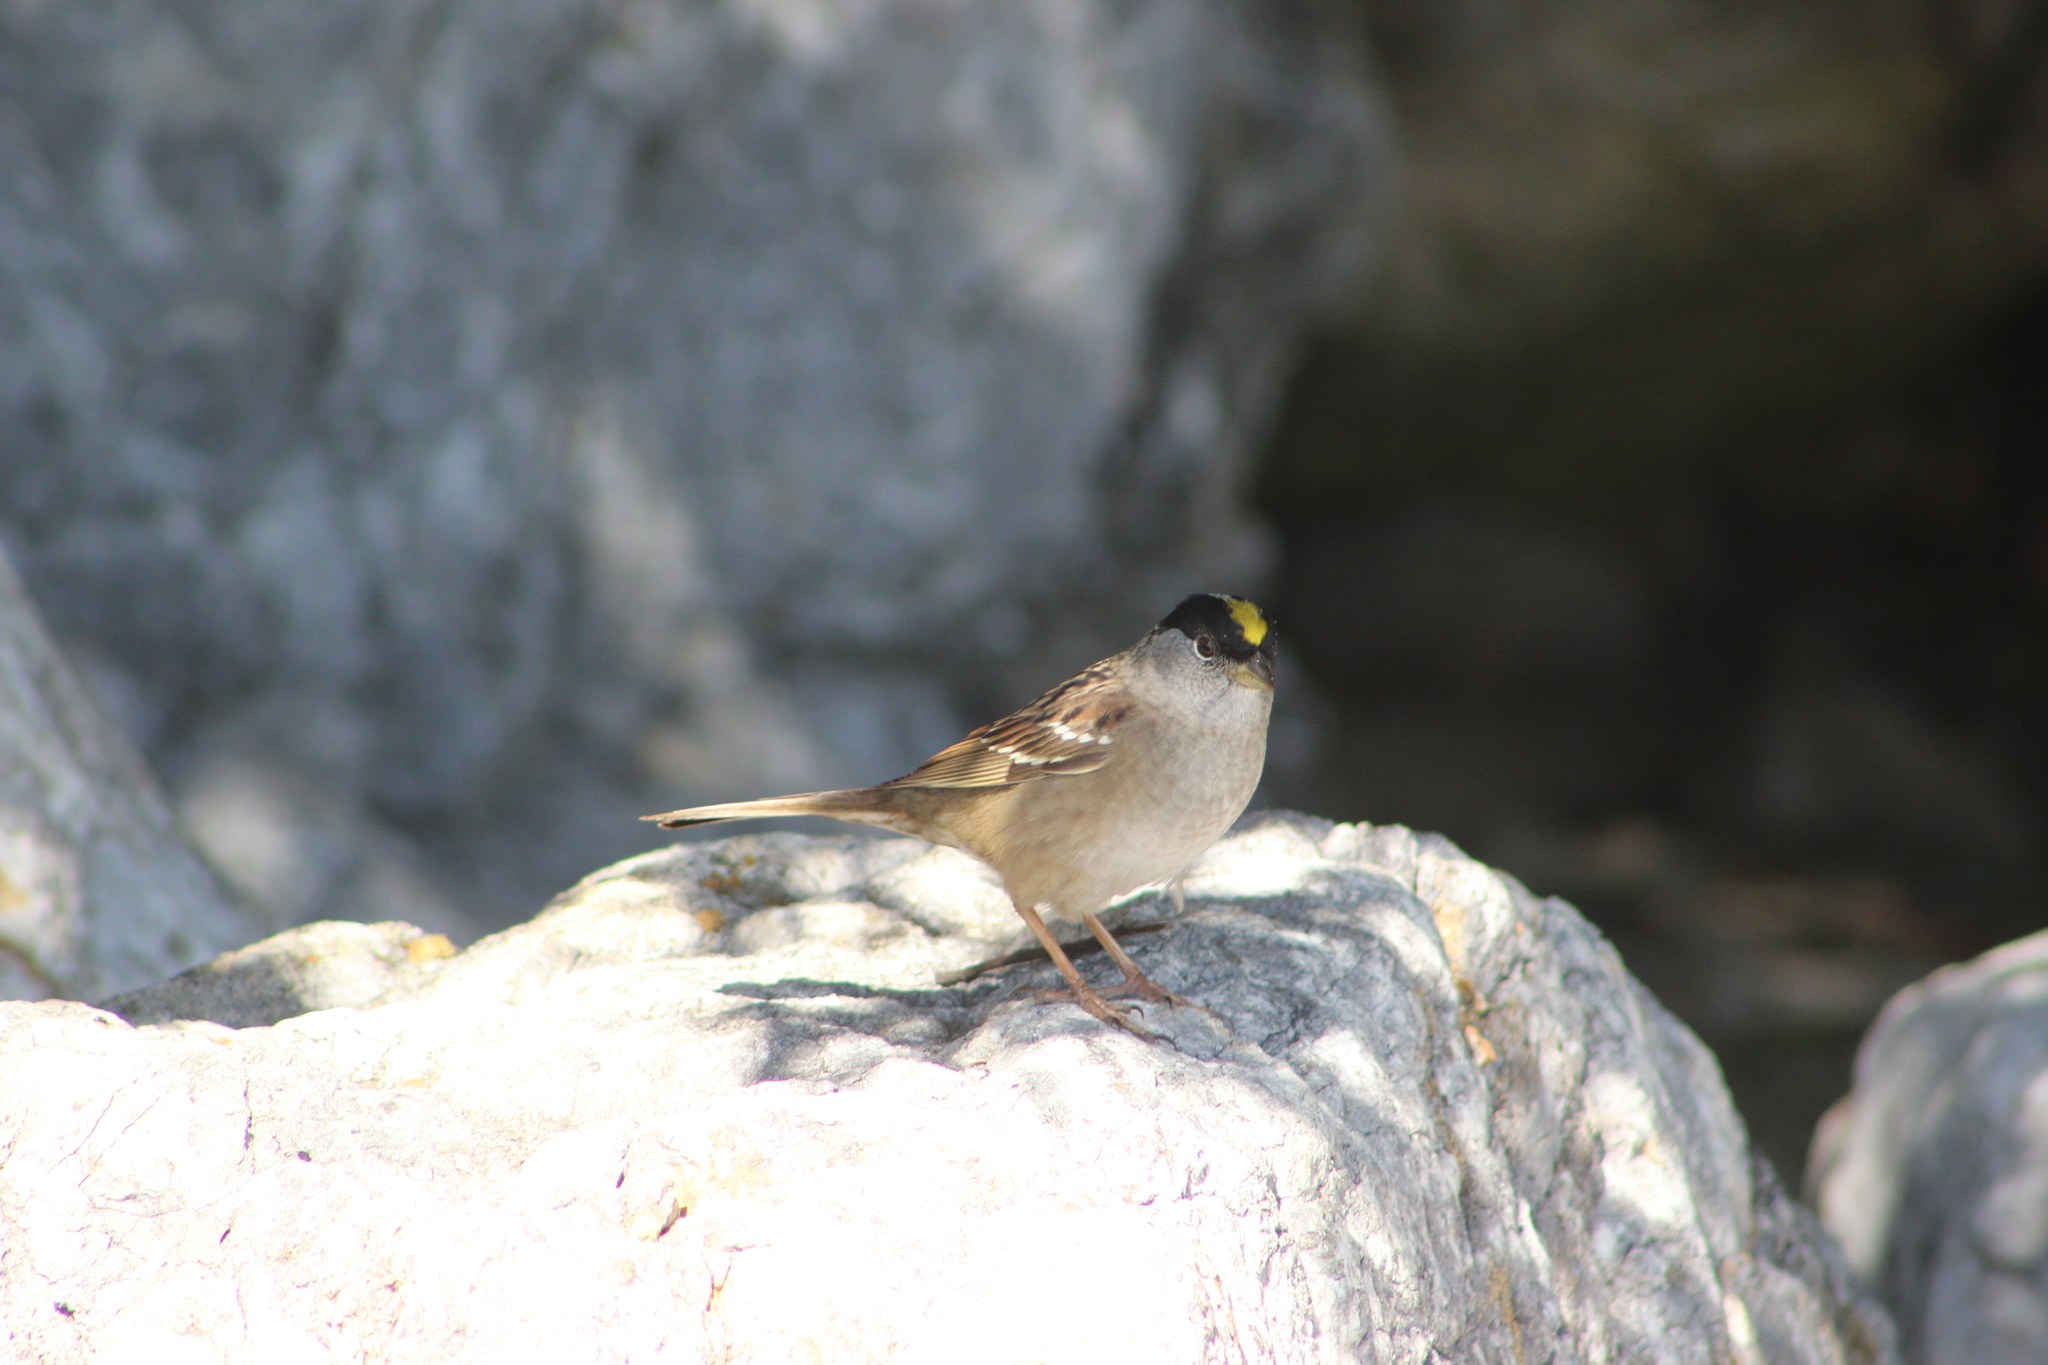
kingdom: Animalia
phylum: Chordata
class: Aves
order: Passeriformes
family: Passerellidae
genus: Zonotrichia
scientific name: Zonotrichia atricapilla
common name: Golden-crowned sparrow
